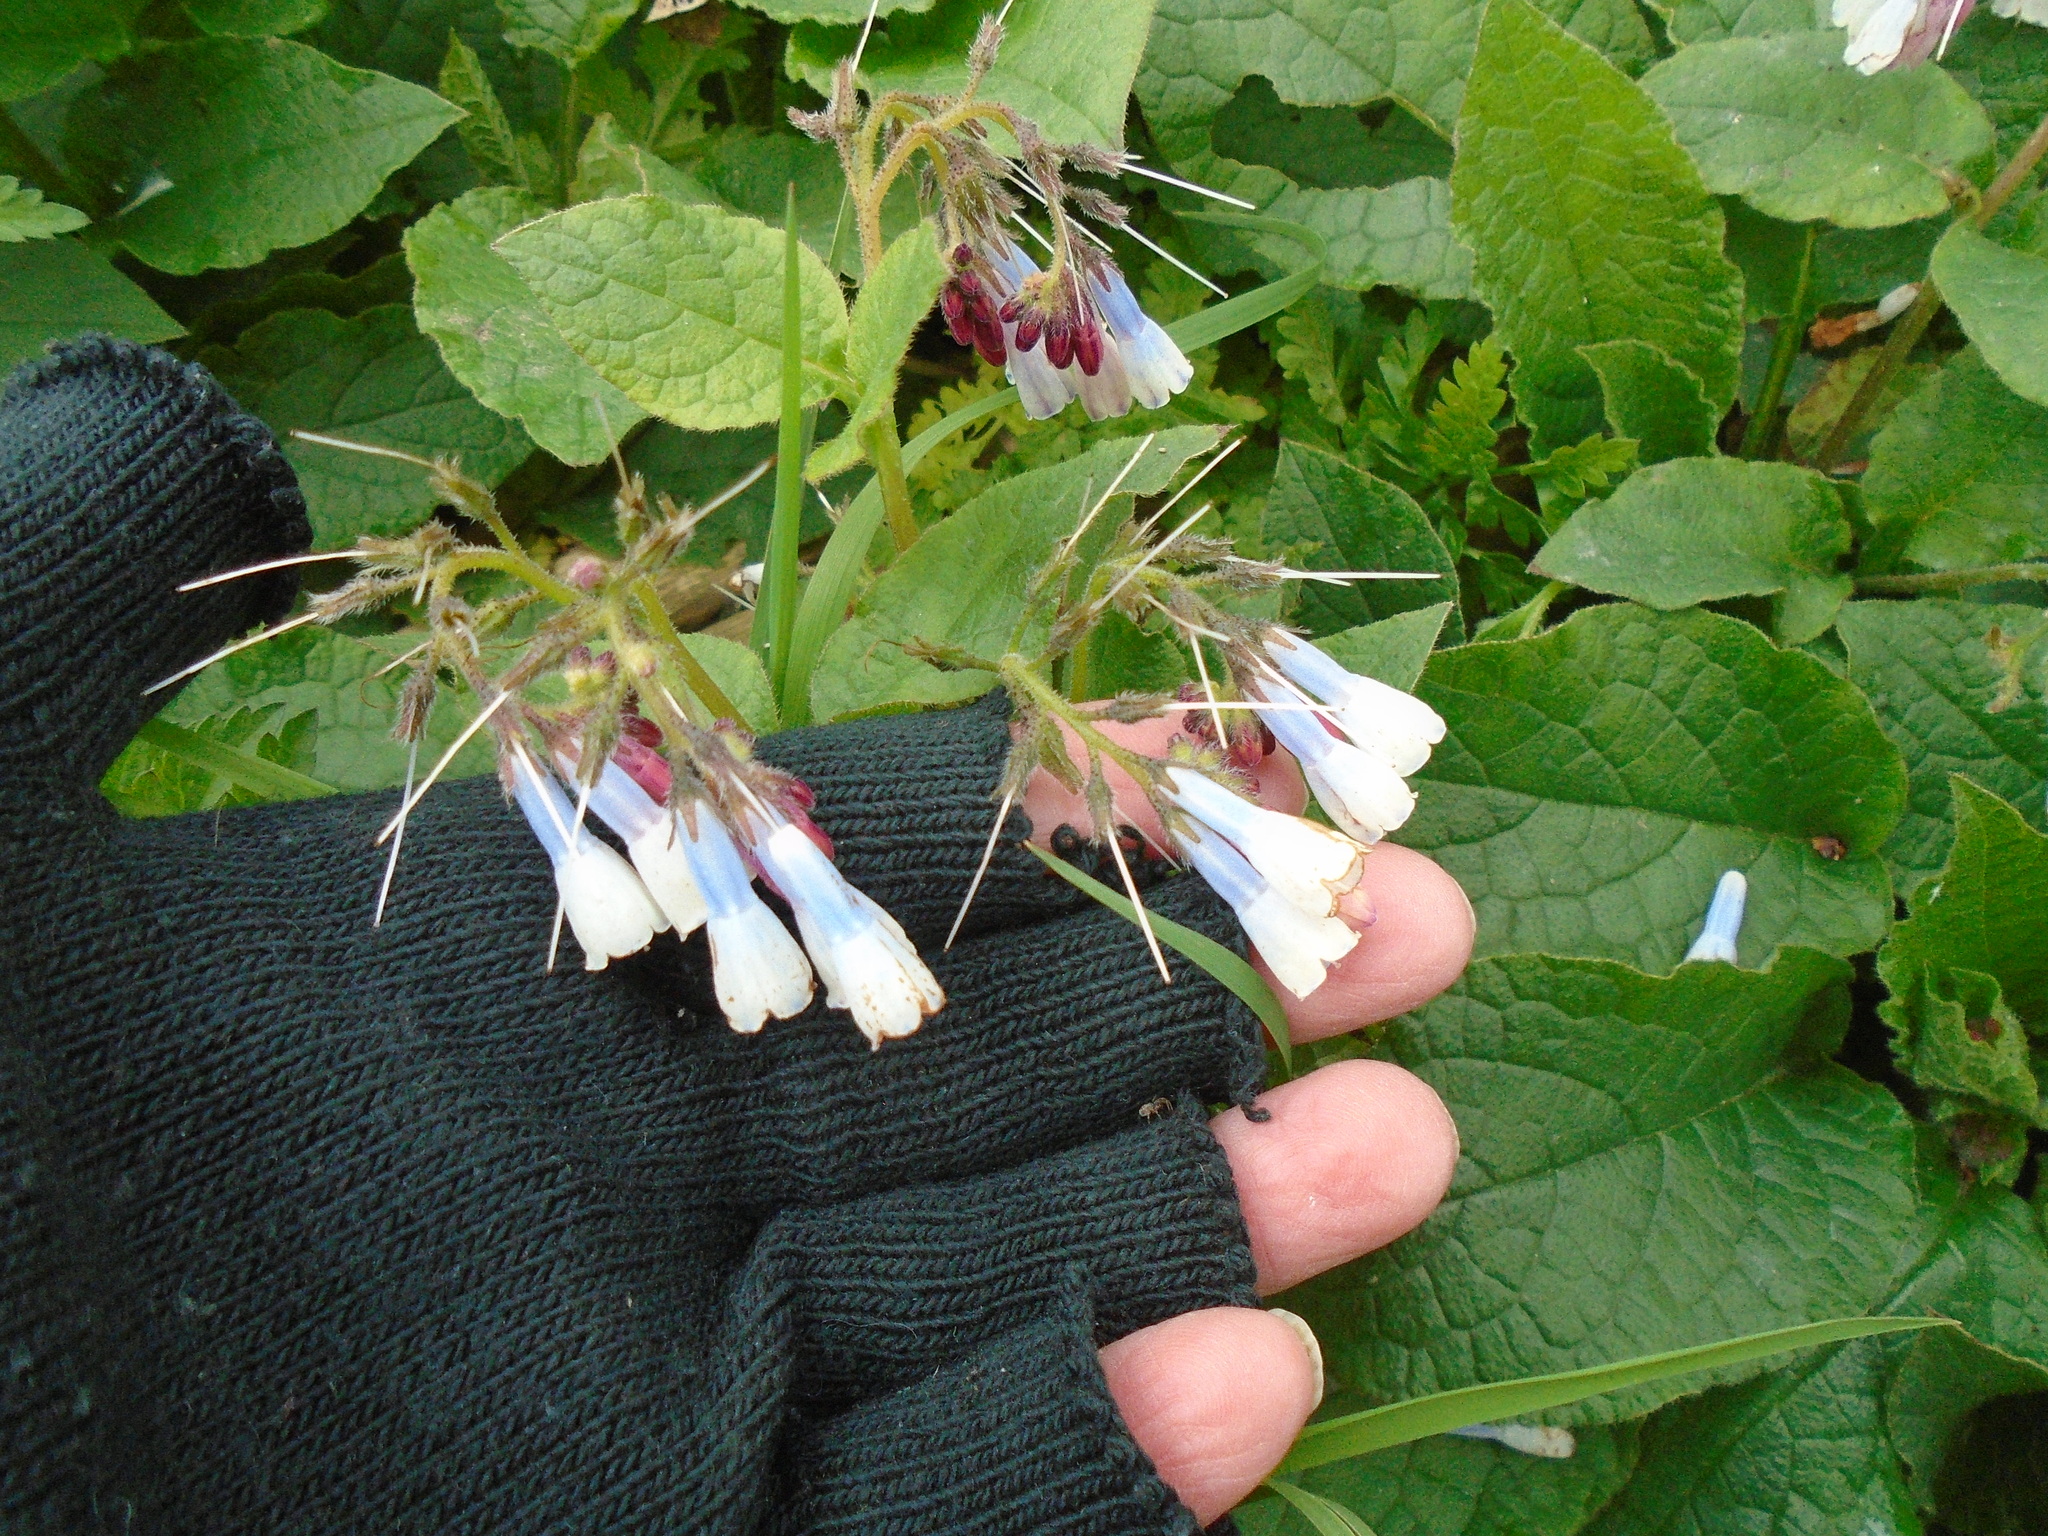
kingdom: Plantae
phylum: Tracheophyta
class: Magnoliopsida
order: Boraginales
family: Boraginaceae
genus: Symphytum
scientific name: Symphytum hidcotense
